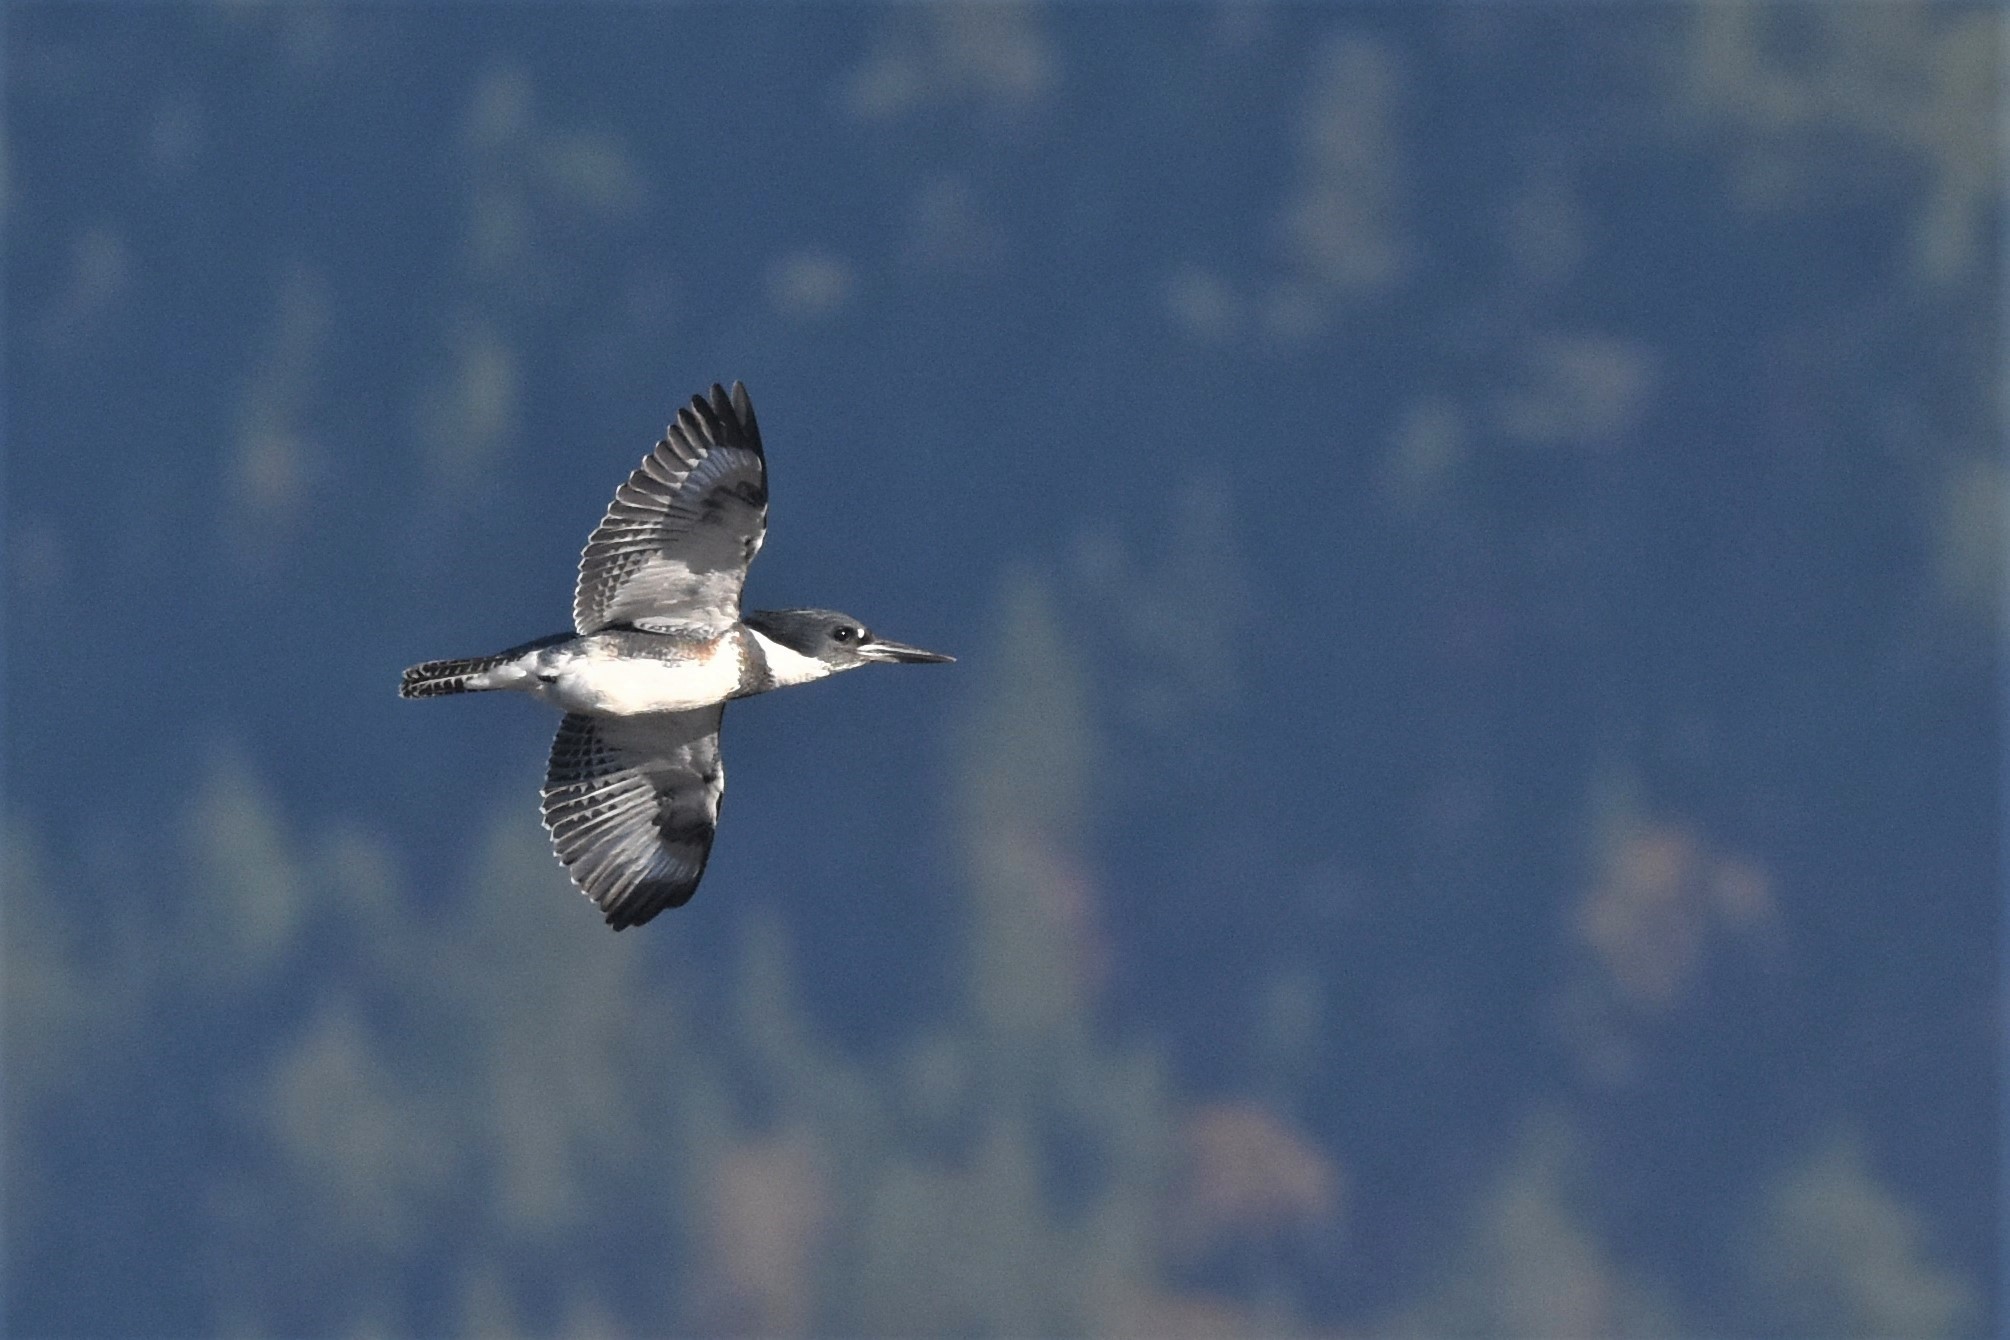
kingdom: Animalia
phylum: Chordata
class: Aves
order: Coraciiformes
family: Alcedinidae
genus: Megaceryle
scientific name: Megaceryle alcyon
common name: Belted kingfisher
